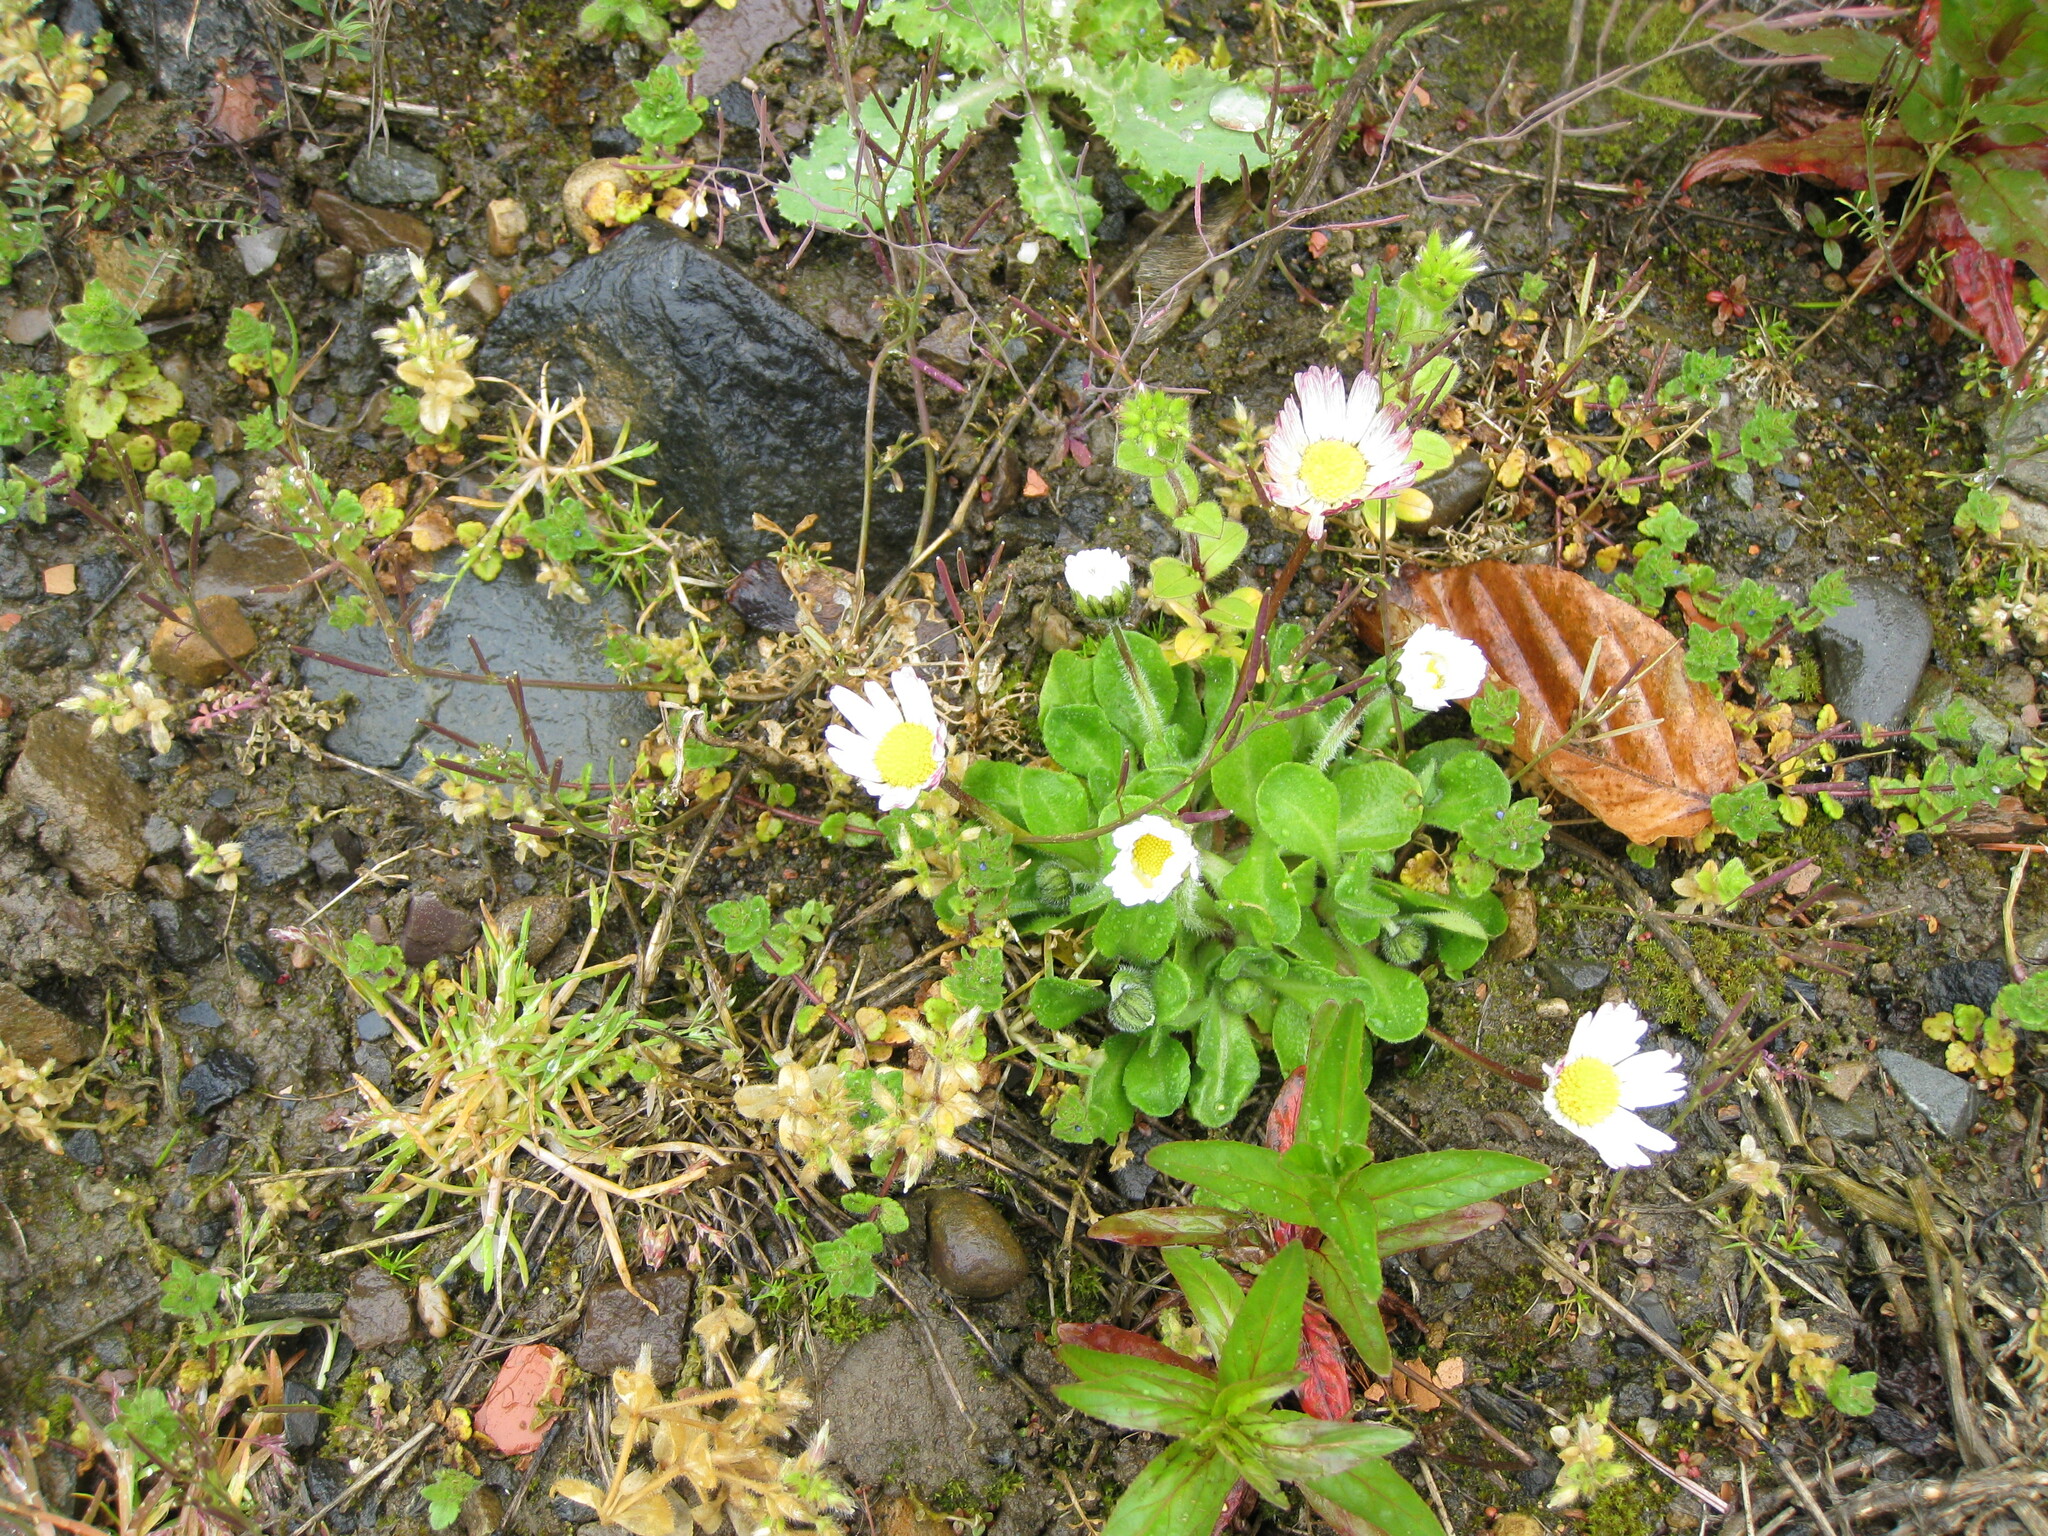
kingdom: Plantae
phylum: Tracheophyta
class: Magnoliopsida
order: Asterales
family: Asteraceae
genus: Bellis
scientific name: Bellis perennis
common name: Lawndaisy
